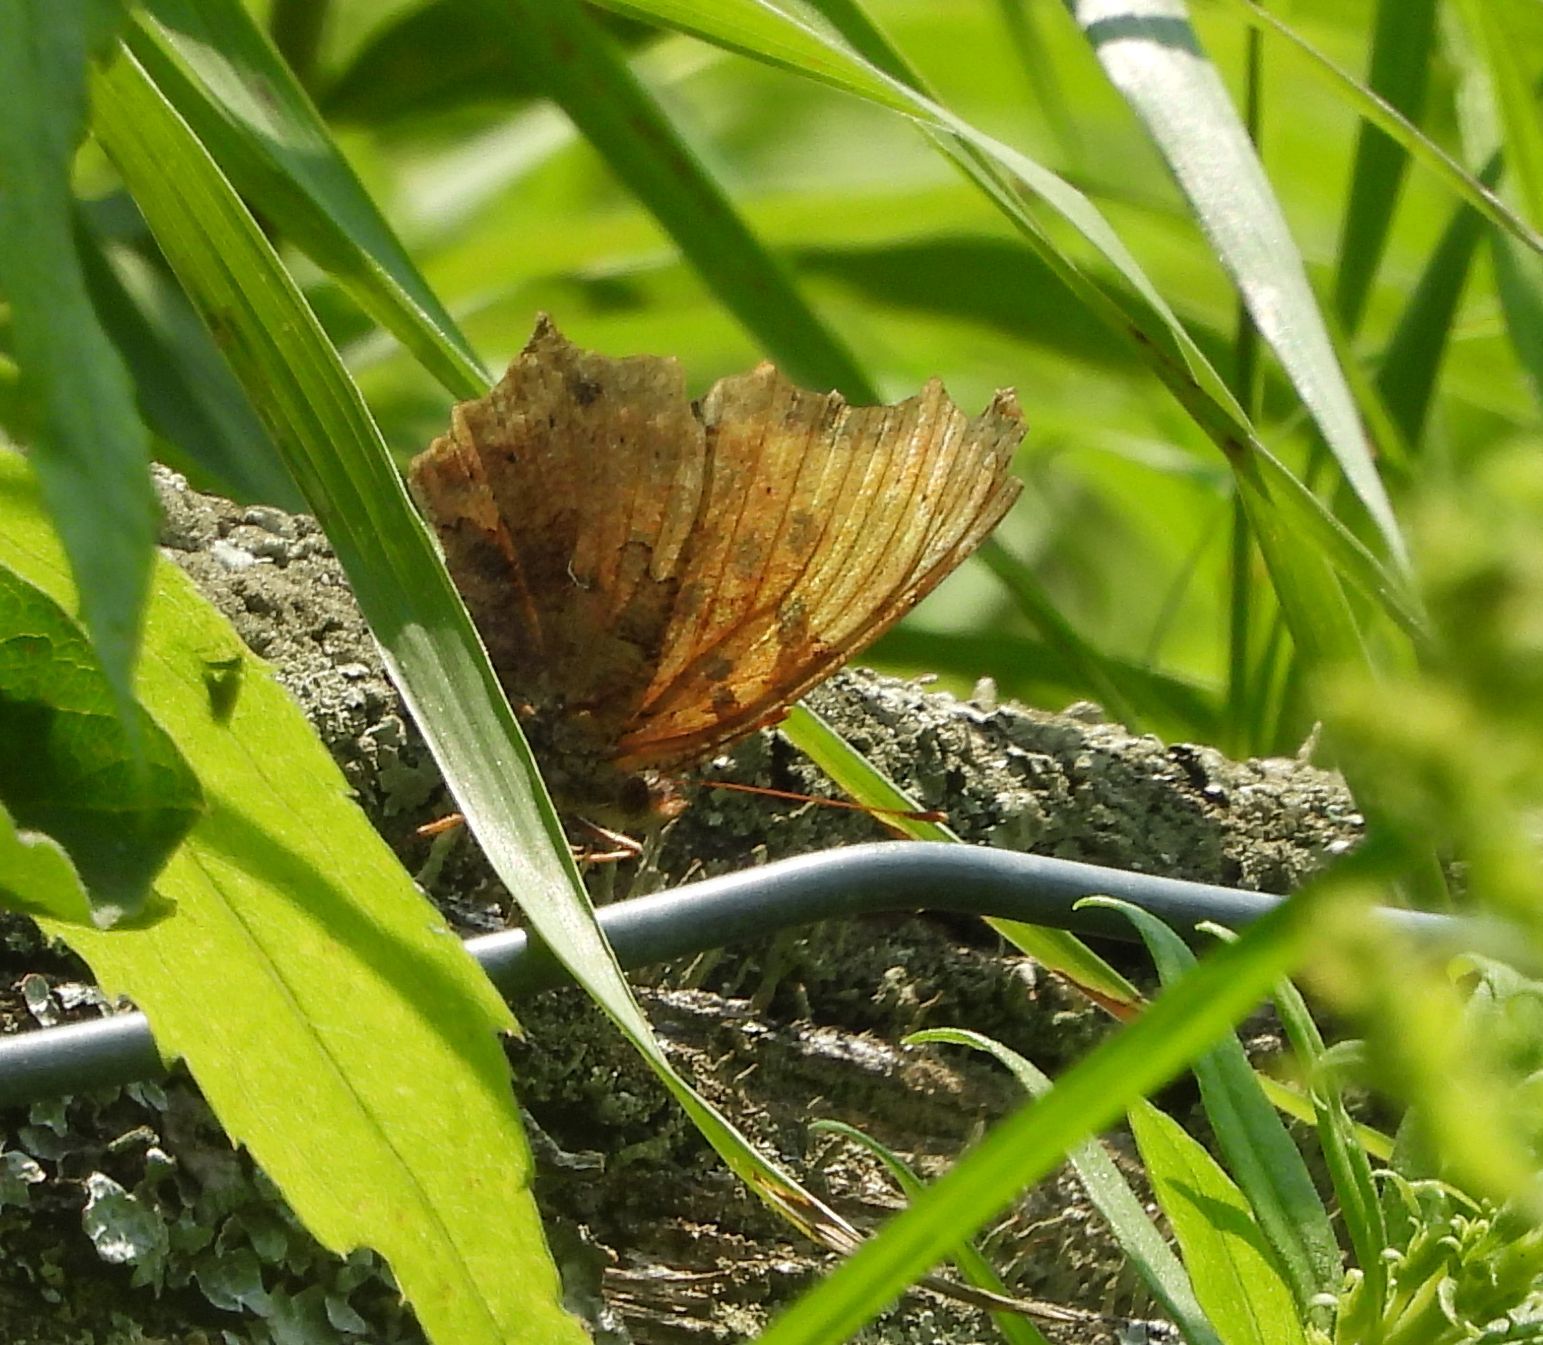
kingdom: Animalia
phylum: Arthropoda
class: Insecta
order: Lepidoptera
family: Nymphalidae
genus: Polygonia
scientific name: Polygonia comma
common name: Eastern comma
